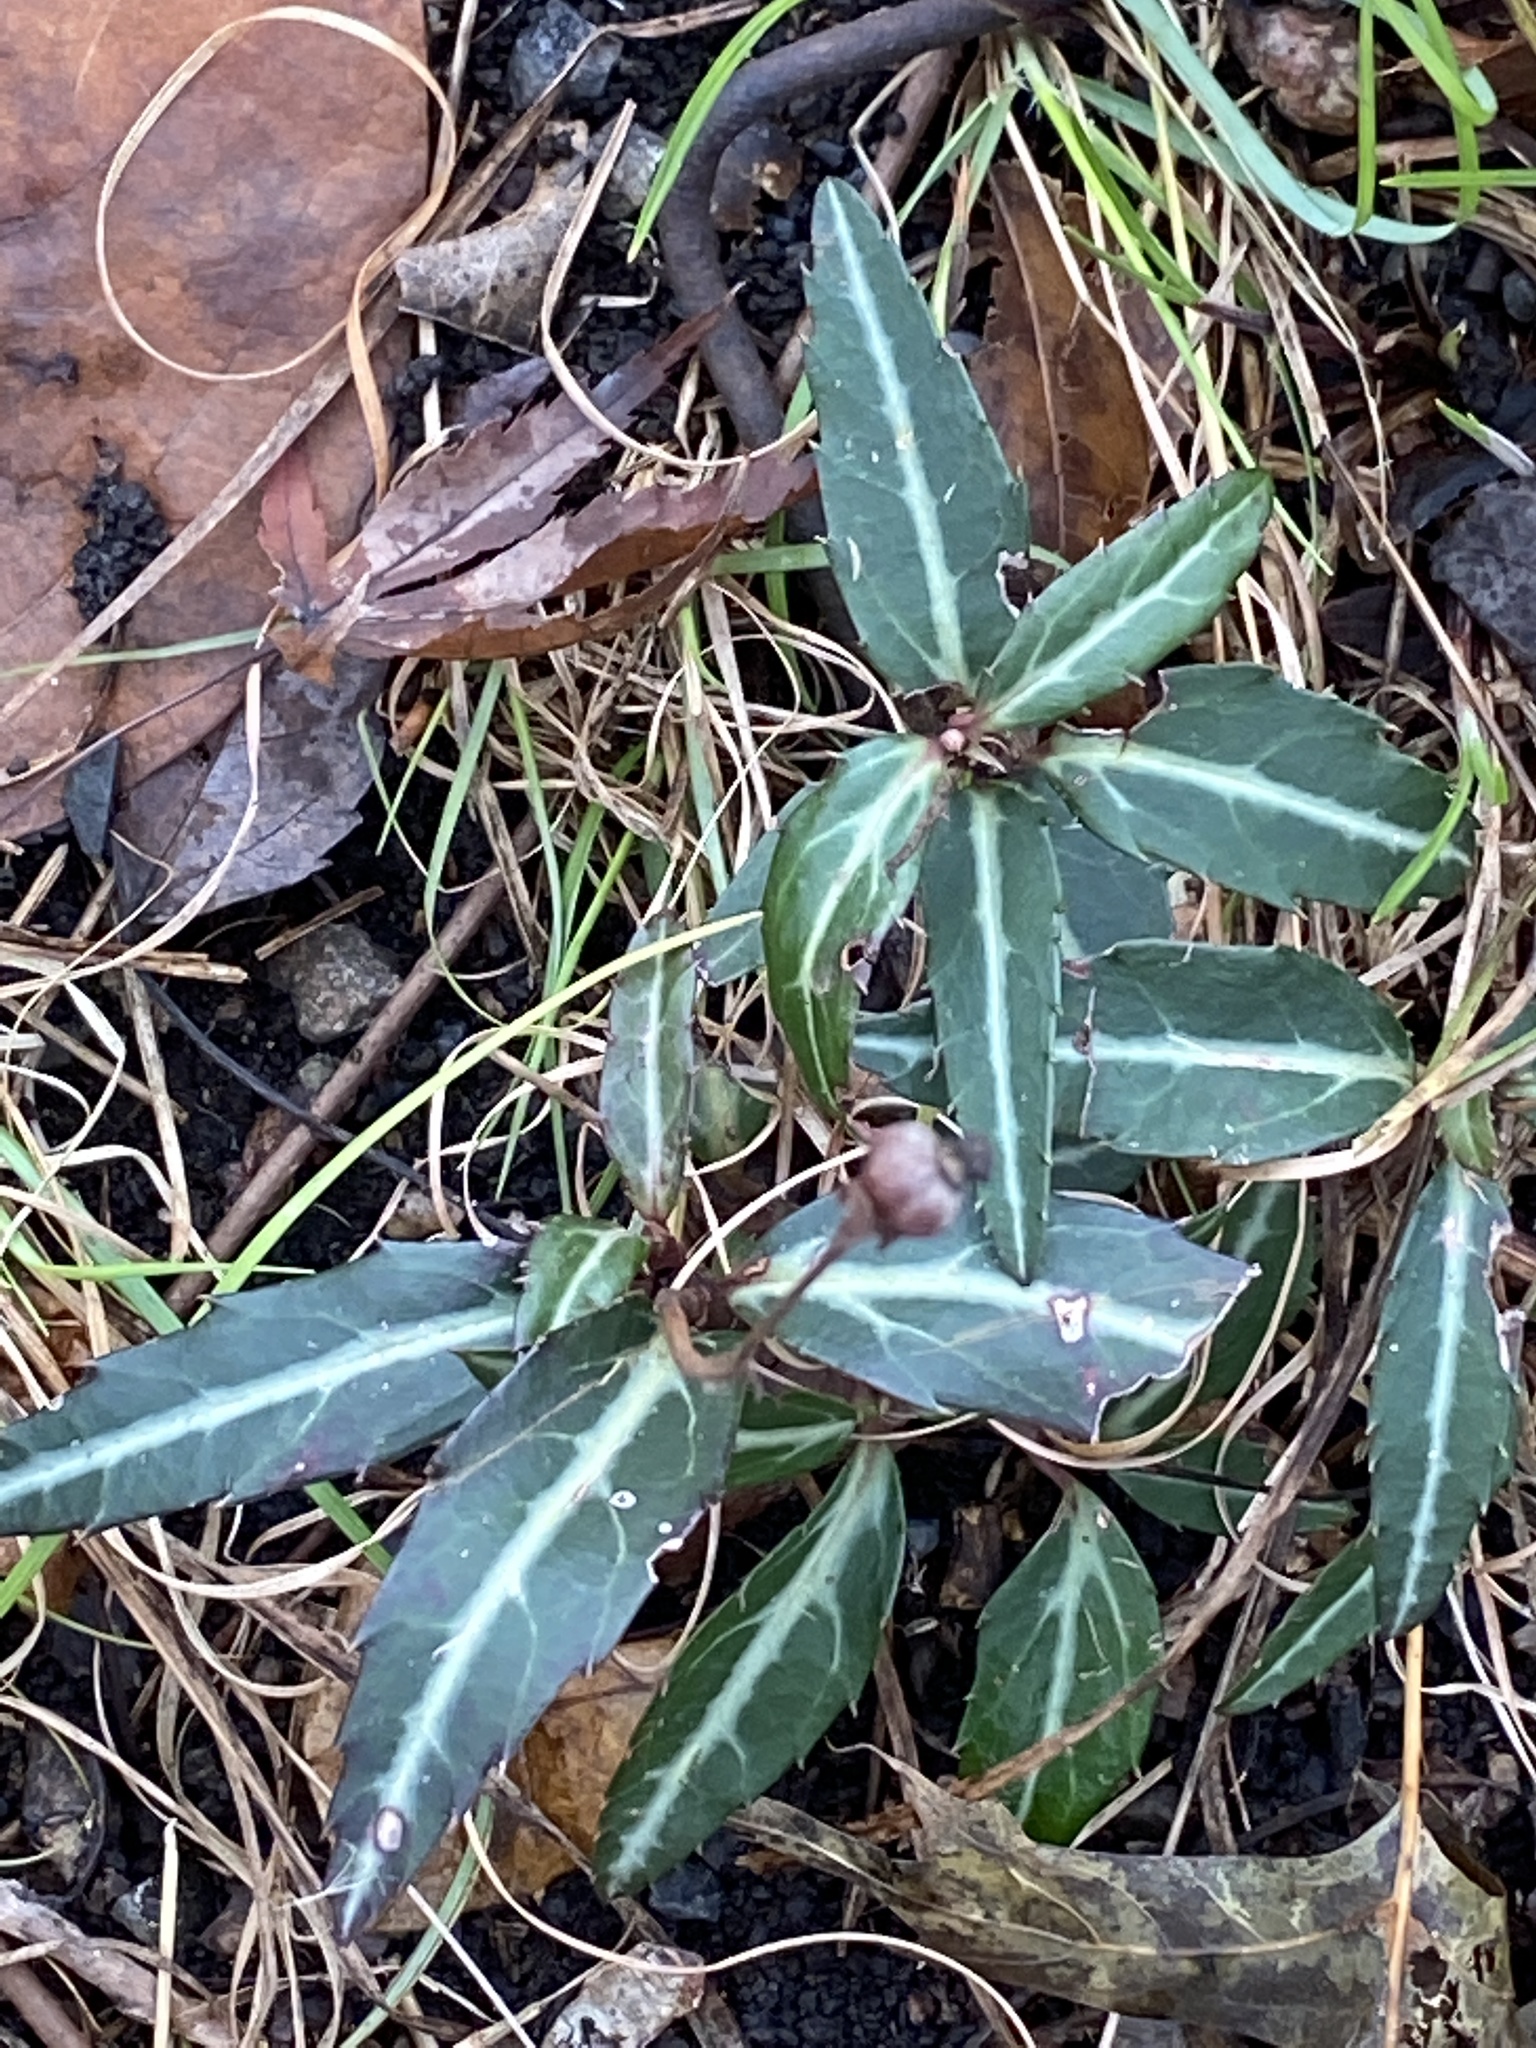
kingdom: Plantae
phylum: Tracheophyta
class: Magnoliopsida
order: Ericales
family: Ericaceae
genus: Chimaphila
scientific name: Chimaphila maculata
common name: Spotted pipsissewa
